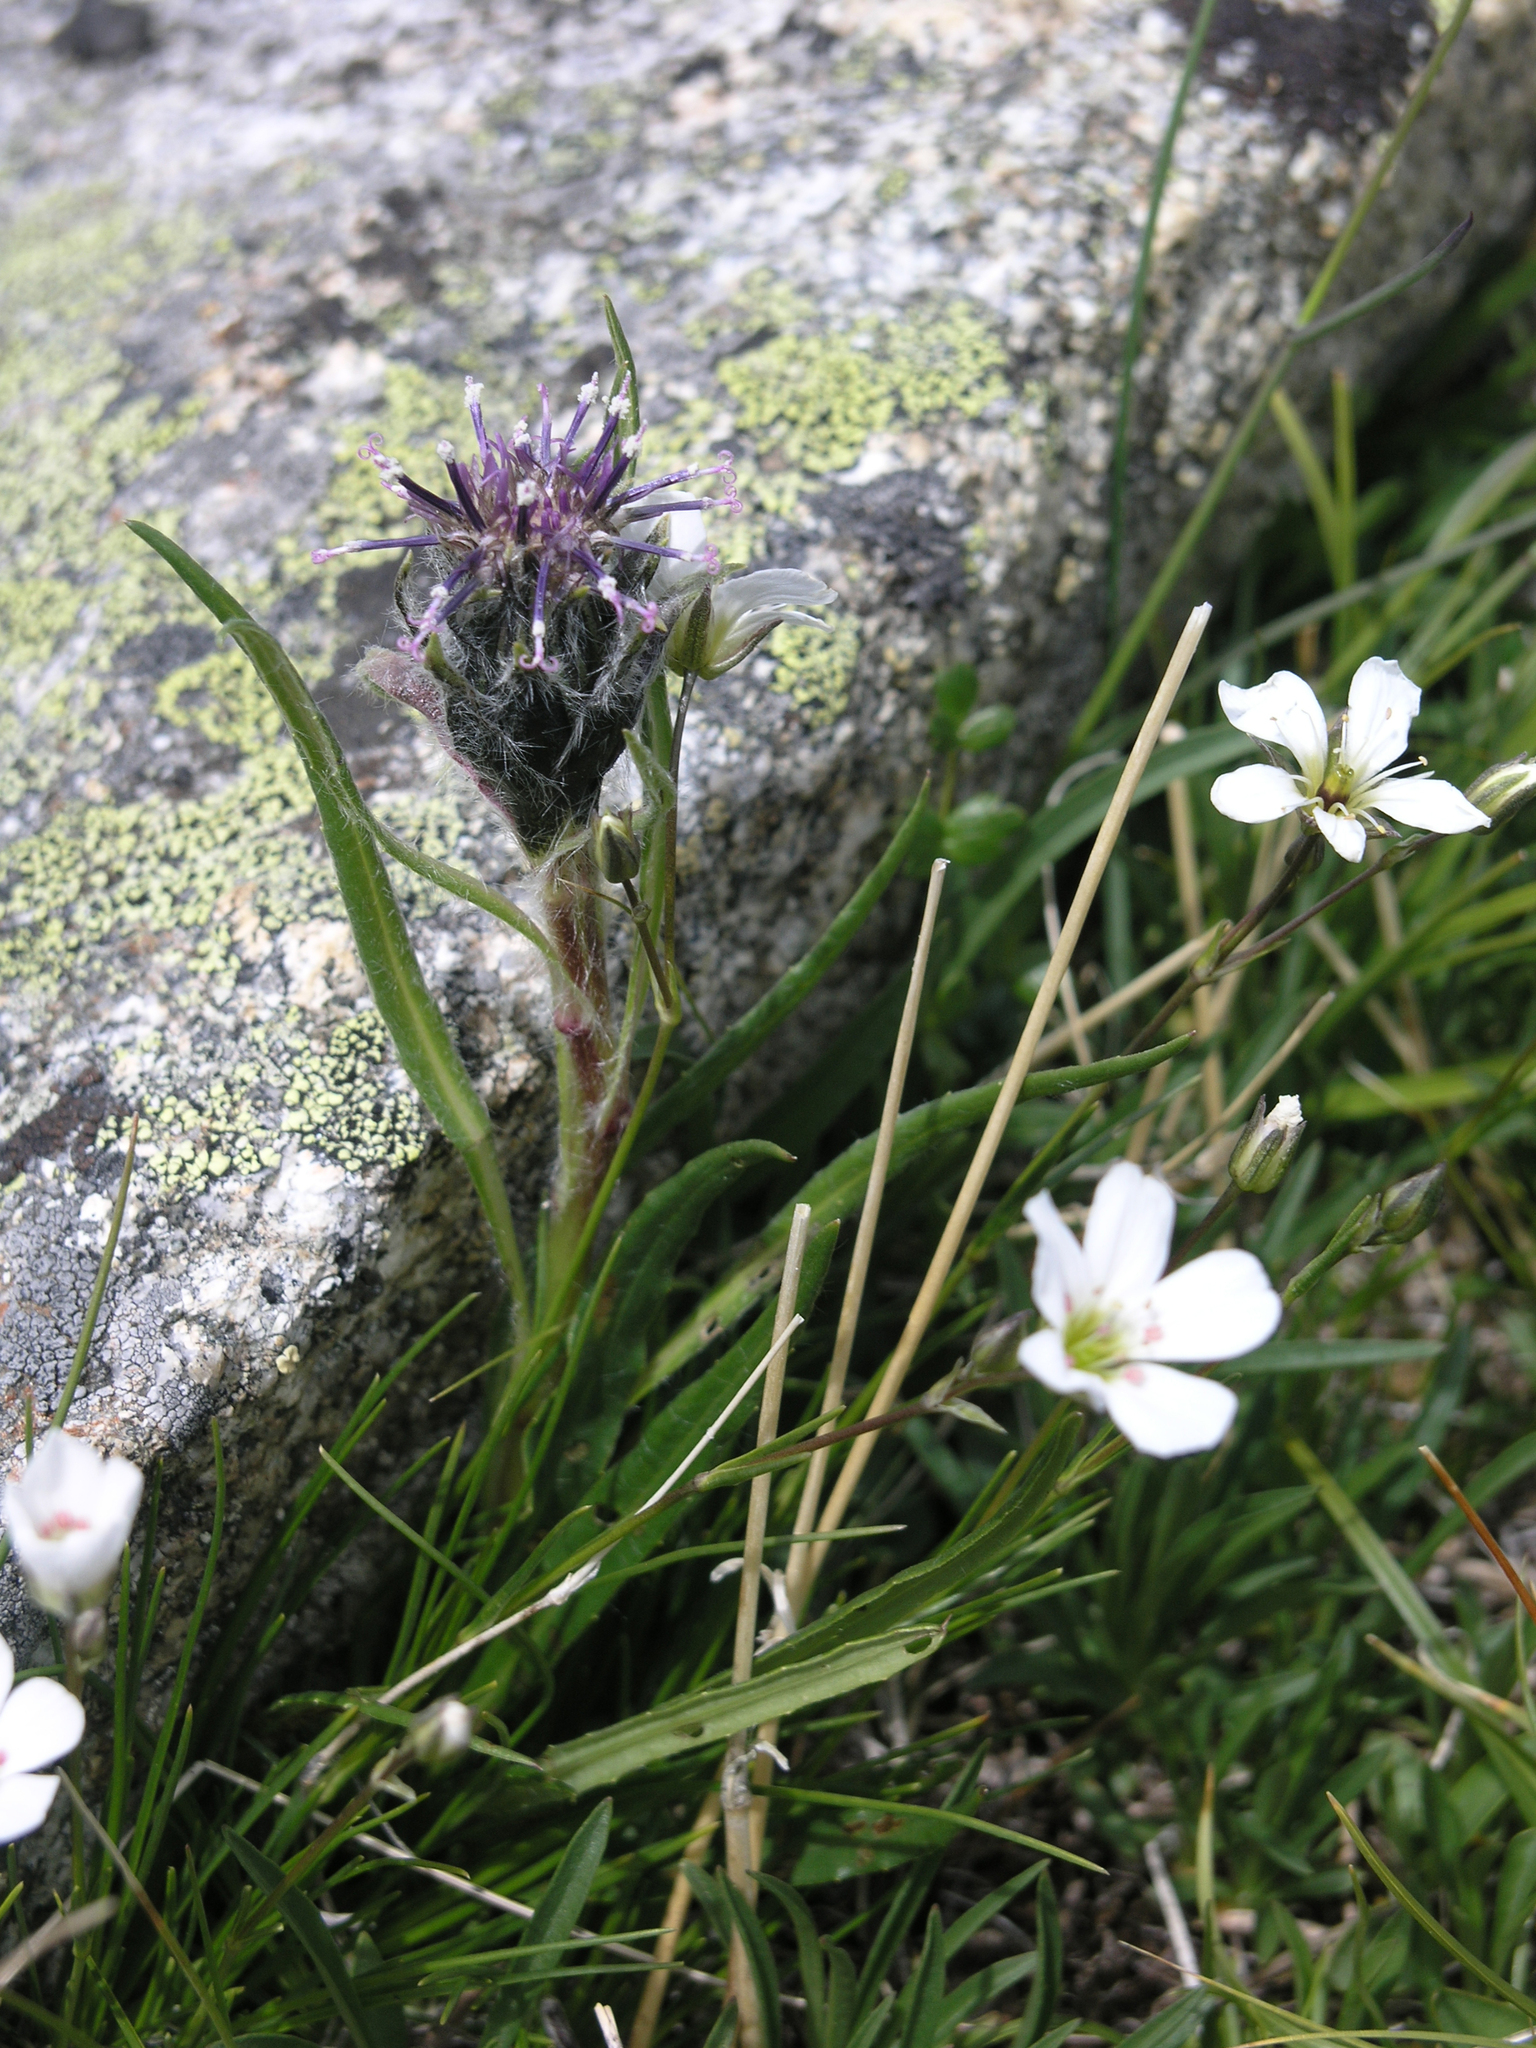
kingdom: Plantae
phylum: Tracheophyta
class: Magnoliopsida
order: Asterales
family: Asteraceae
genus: Saussurea
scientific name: Saussurea schanginiana
